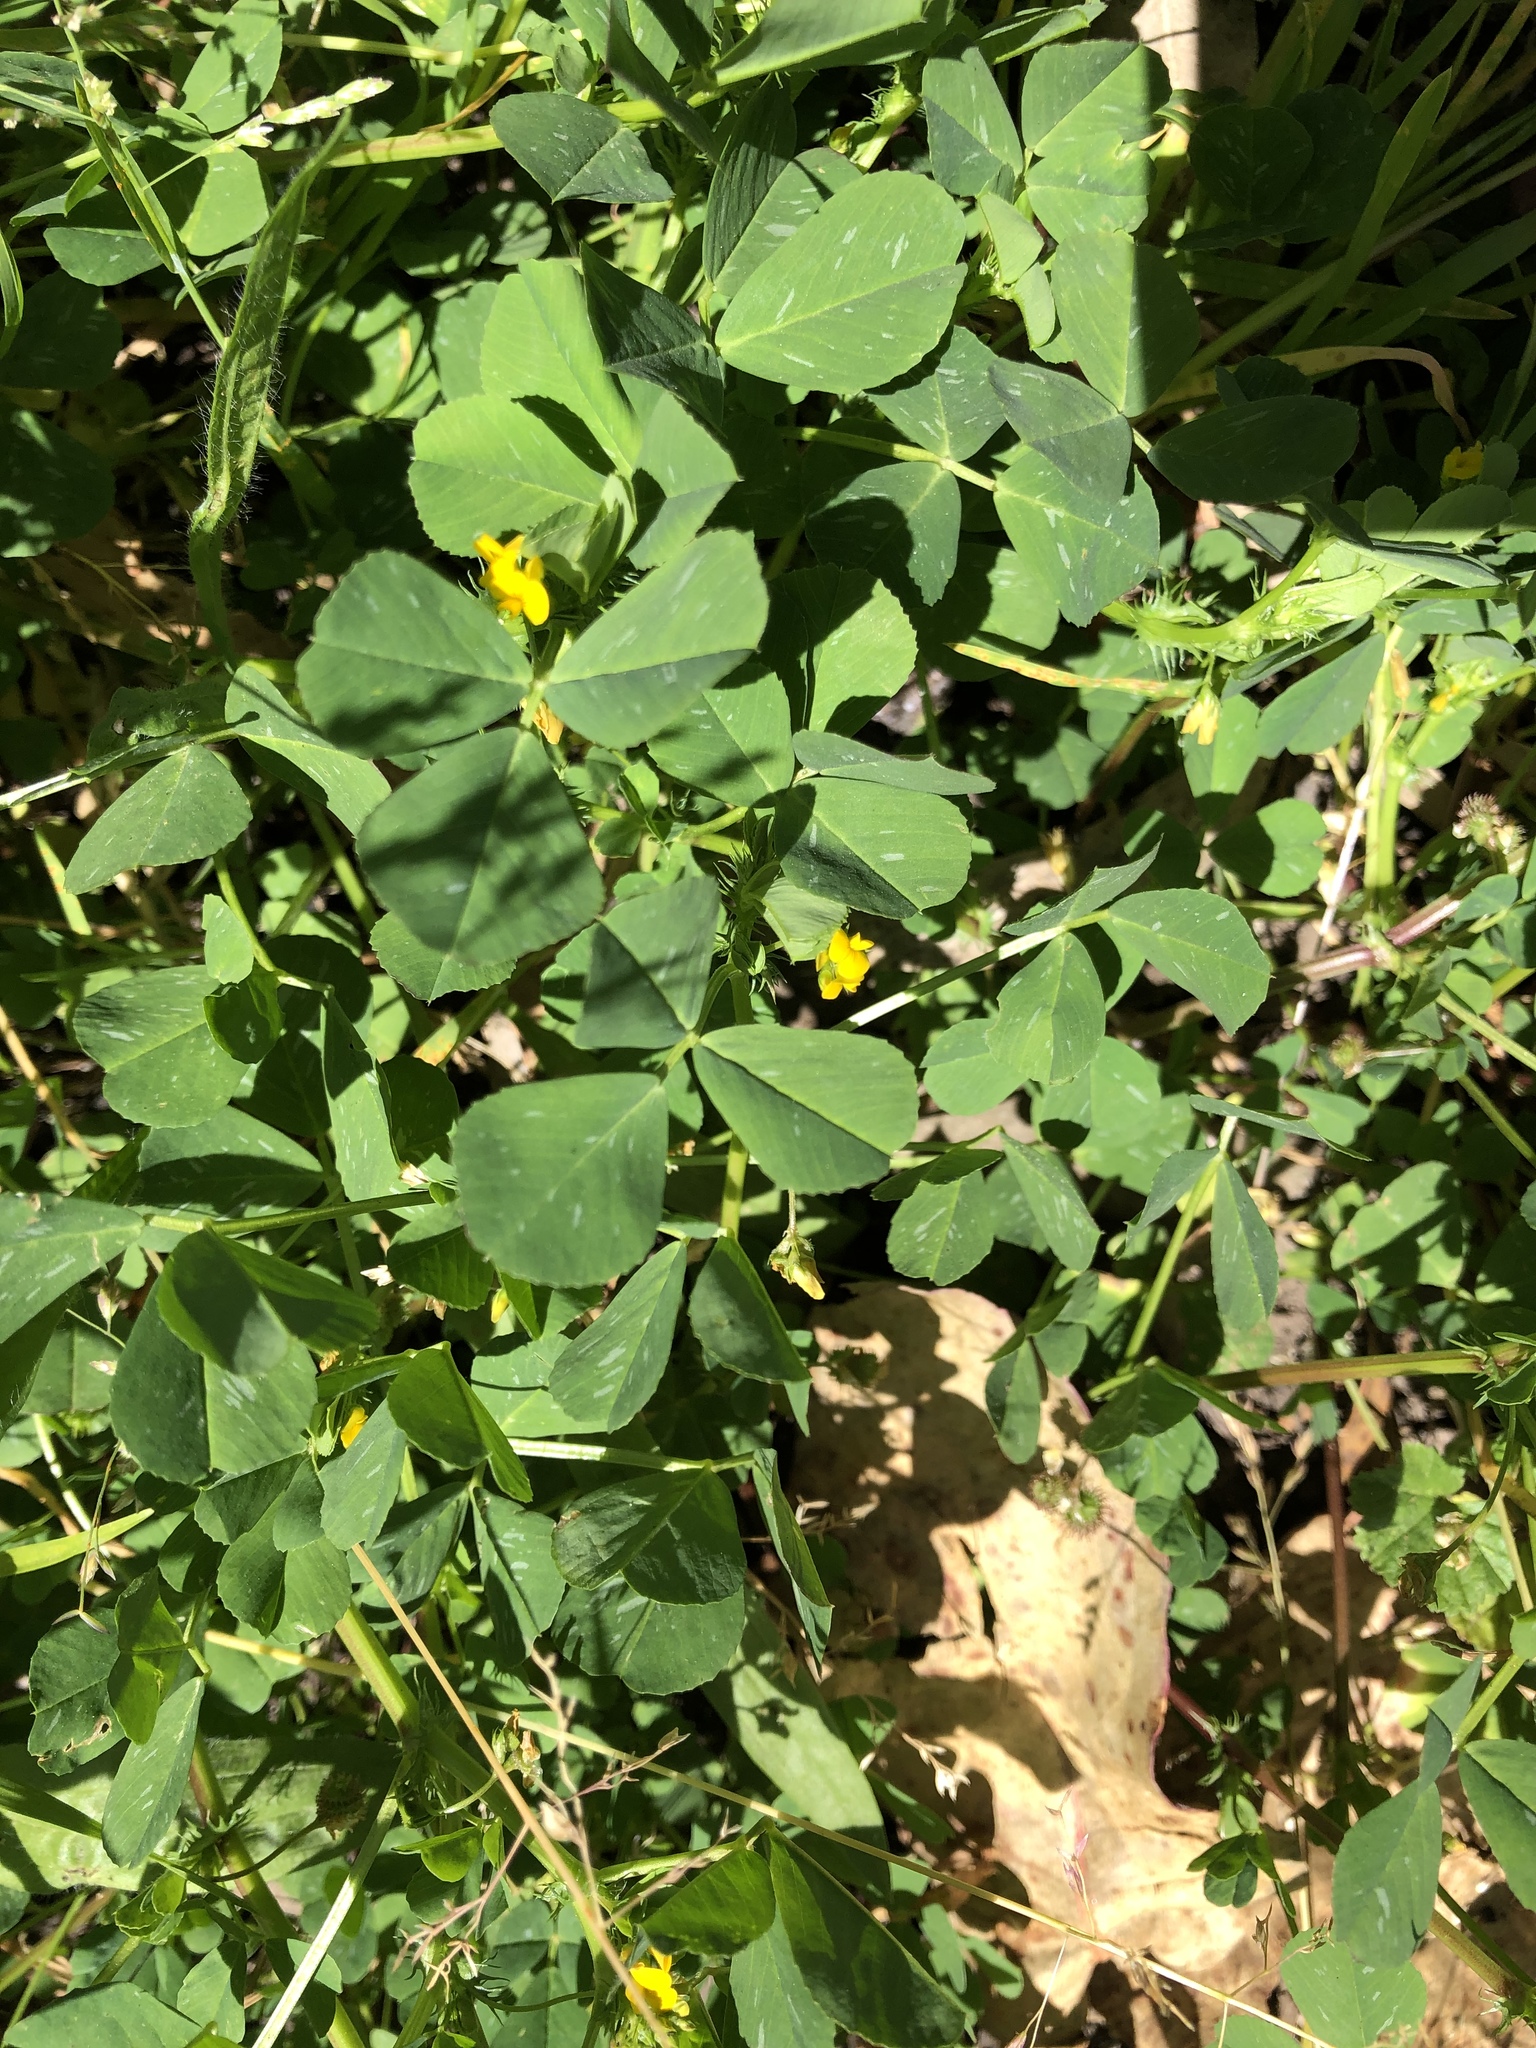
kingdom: Plantae
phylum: Tracheophyta
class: Magnoliopsida
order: Fabales
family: Fabaceae
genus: Medicago
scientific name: Medicago polymorpha
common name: Burclover
